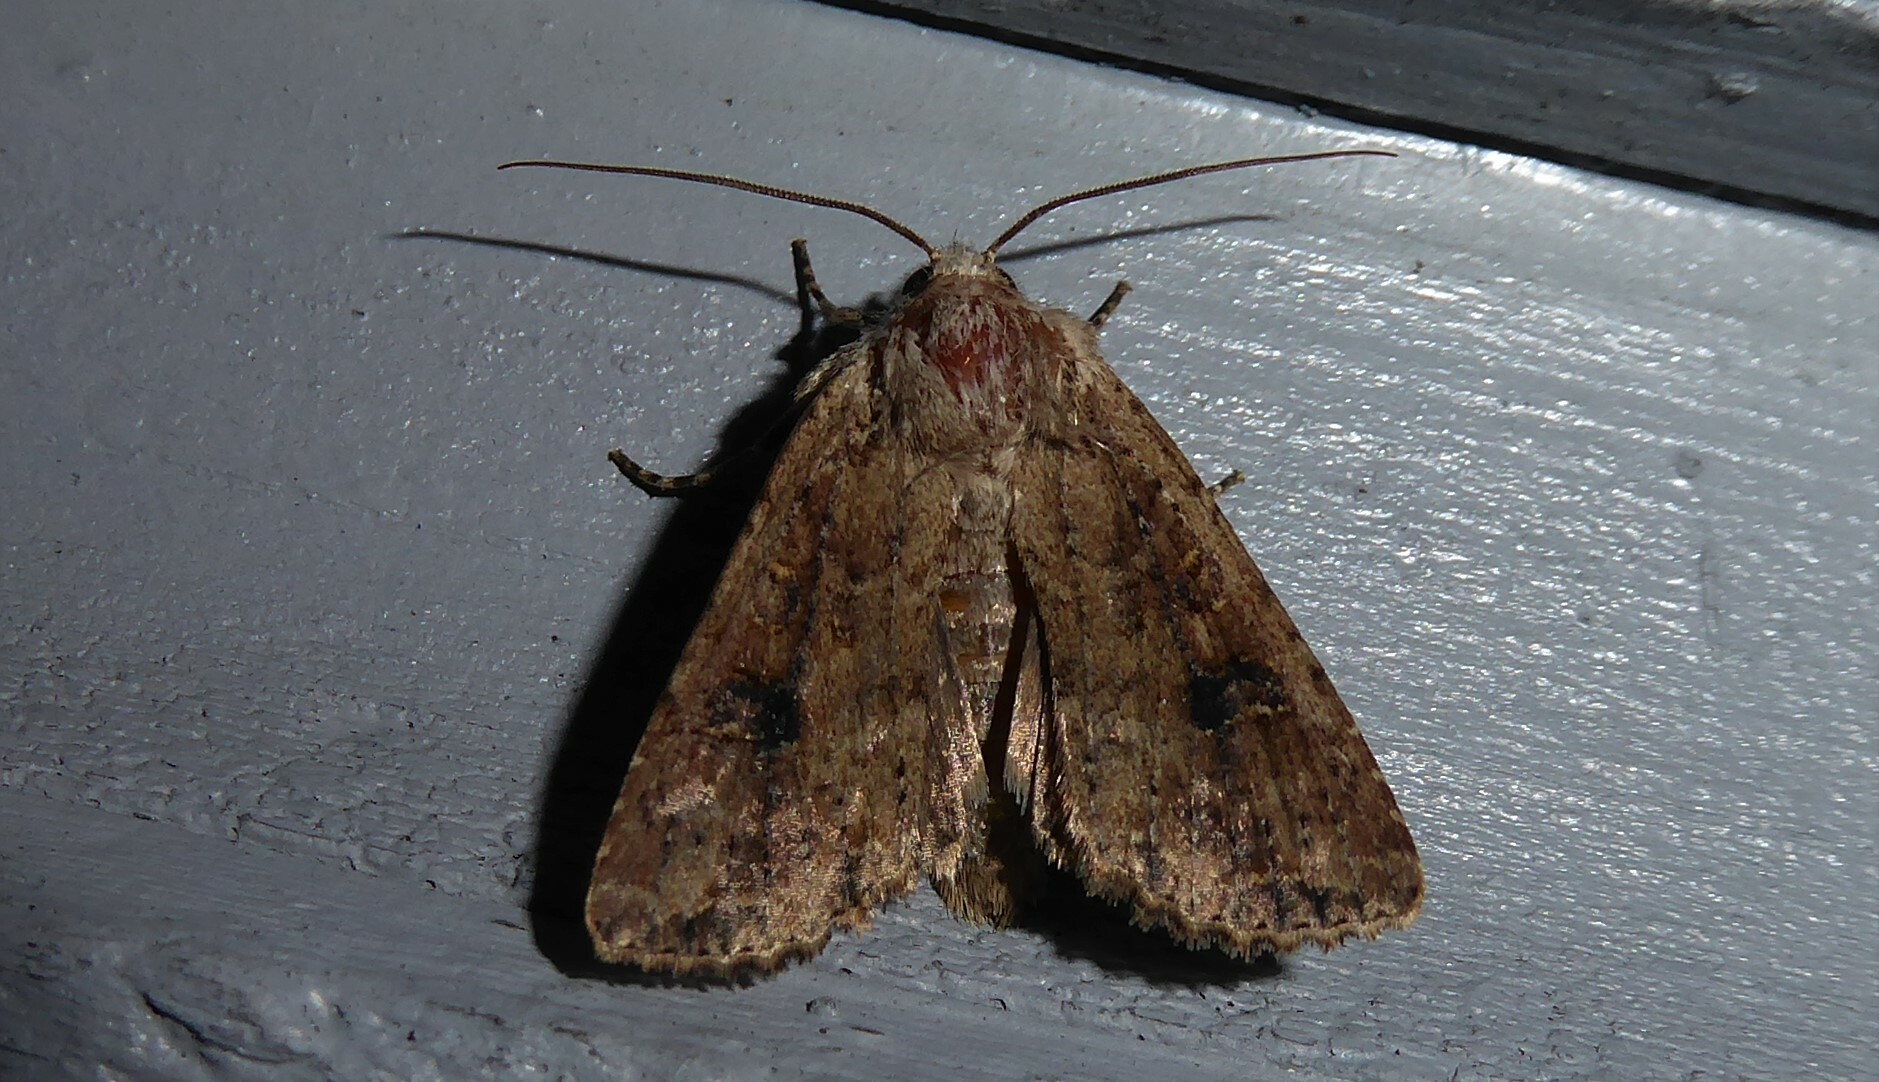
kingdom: Animalia
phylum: Arthropoda
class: Insecta
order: Lepidoptera
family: Noctuidae
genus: Ichneutica
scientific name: Ichneutica morosa
